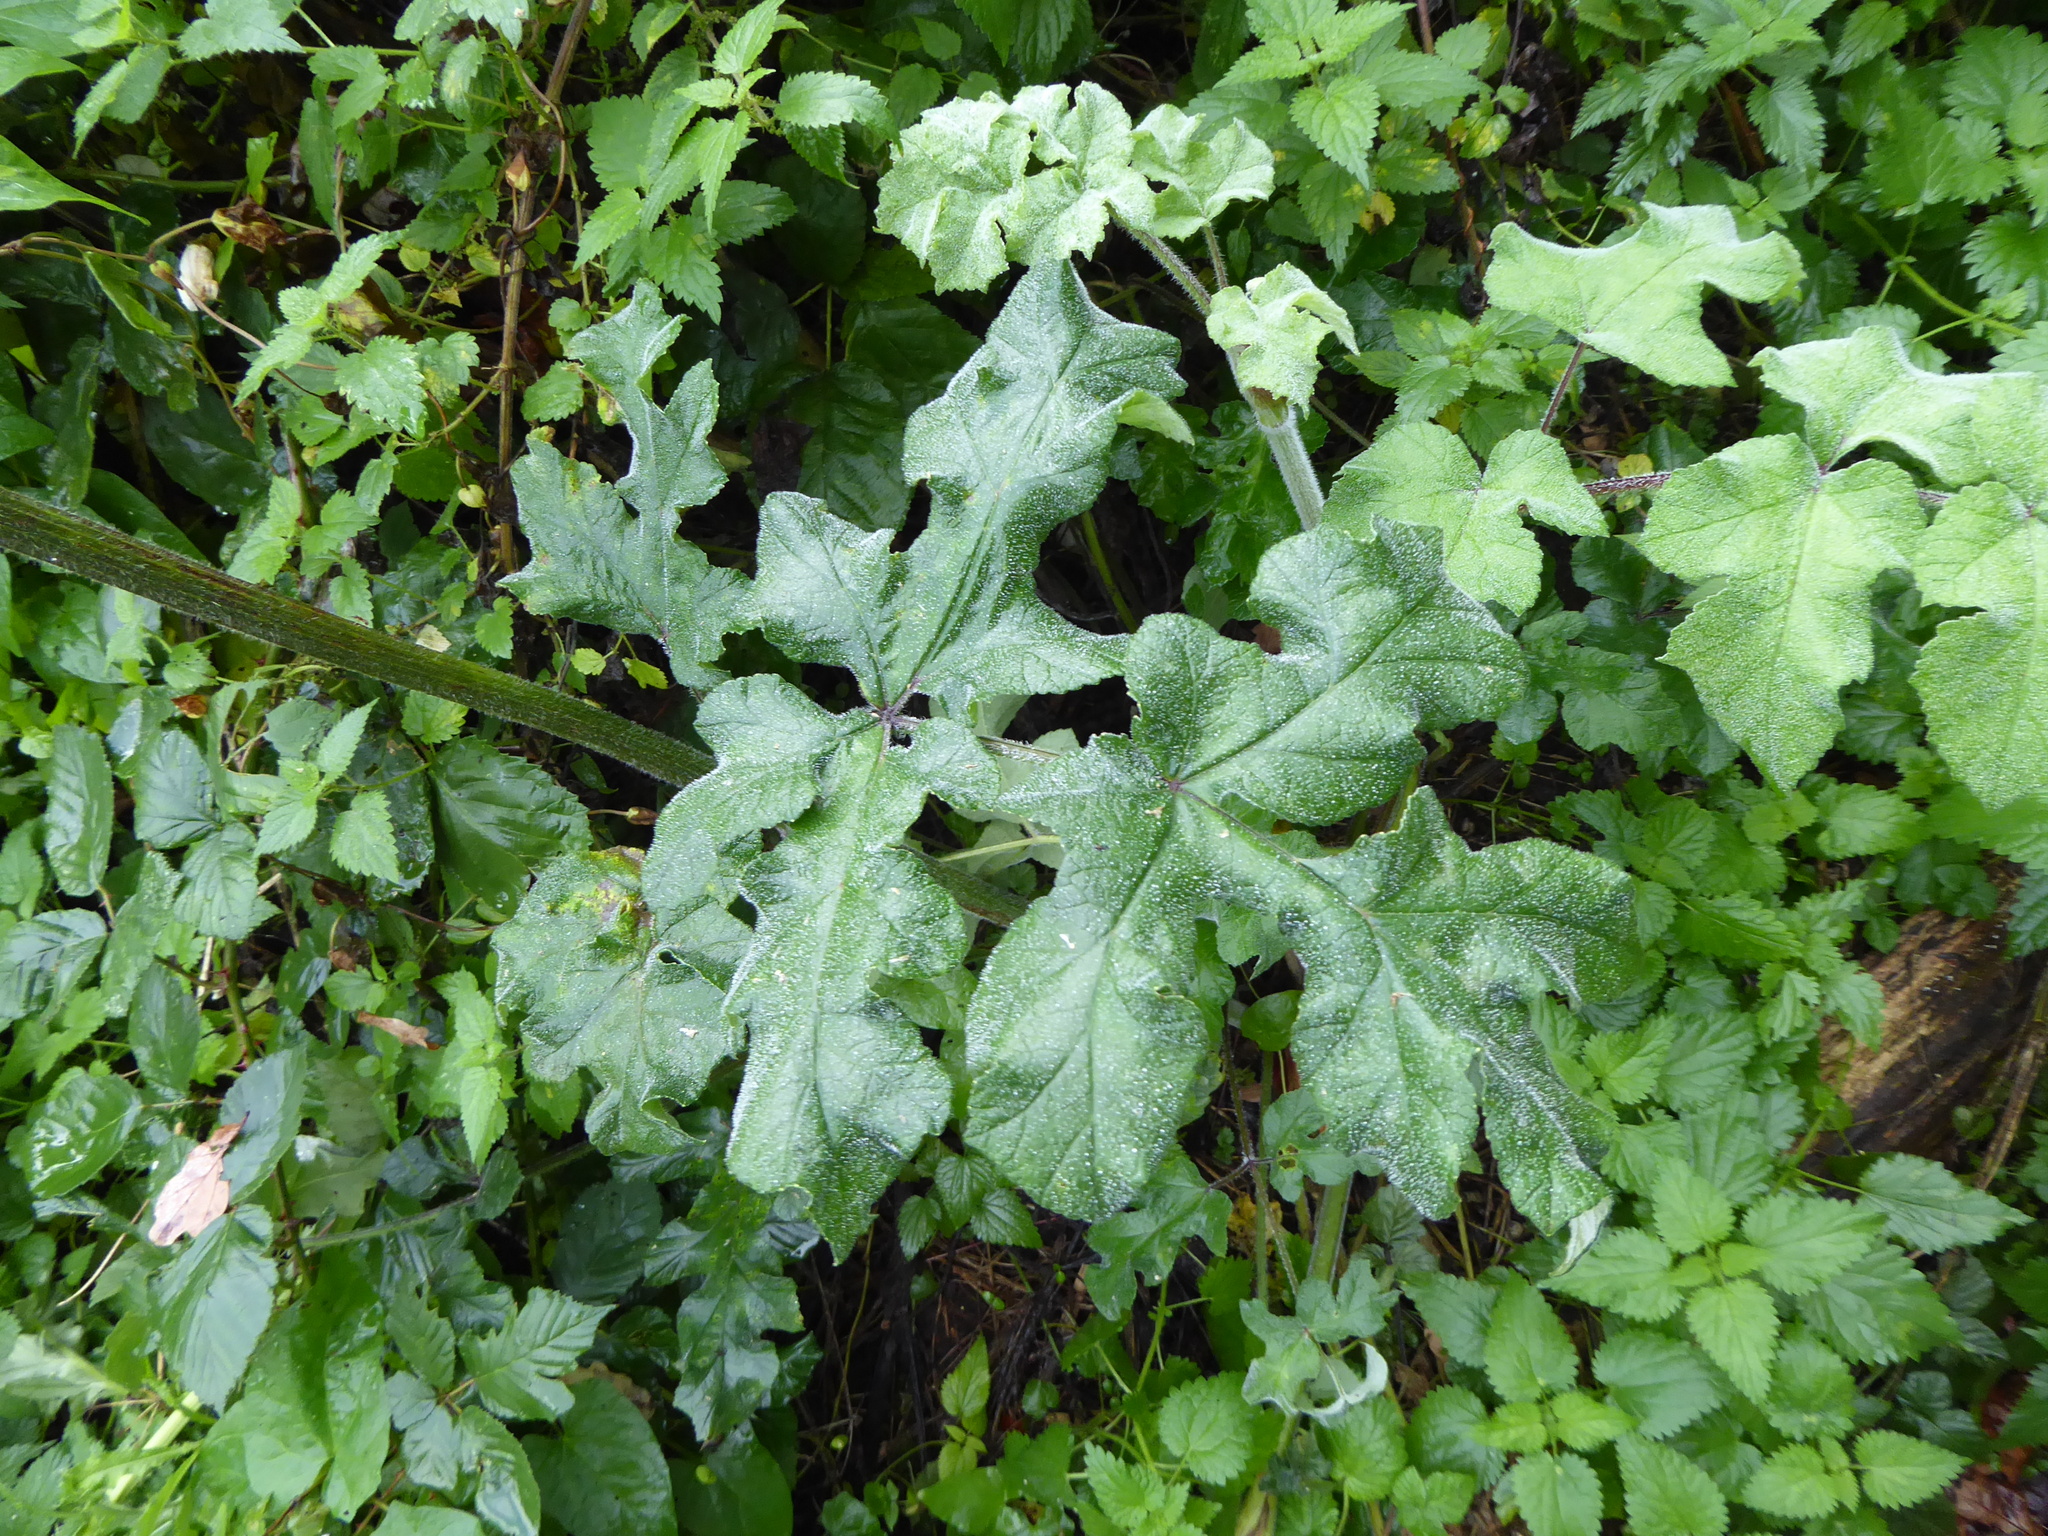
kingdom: Plantae
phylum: Tracheophyta
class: Magnoliopsida
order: Apiales
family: Apiaceae
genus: Heracleum
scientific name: Heracleum sphondylium
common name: Hogweed
